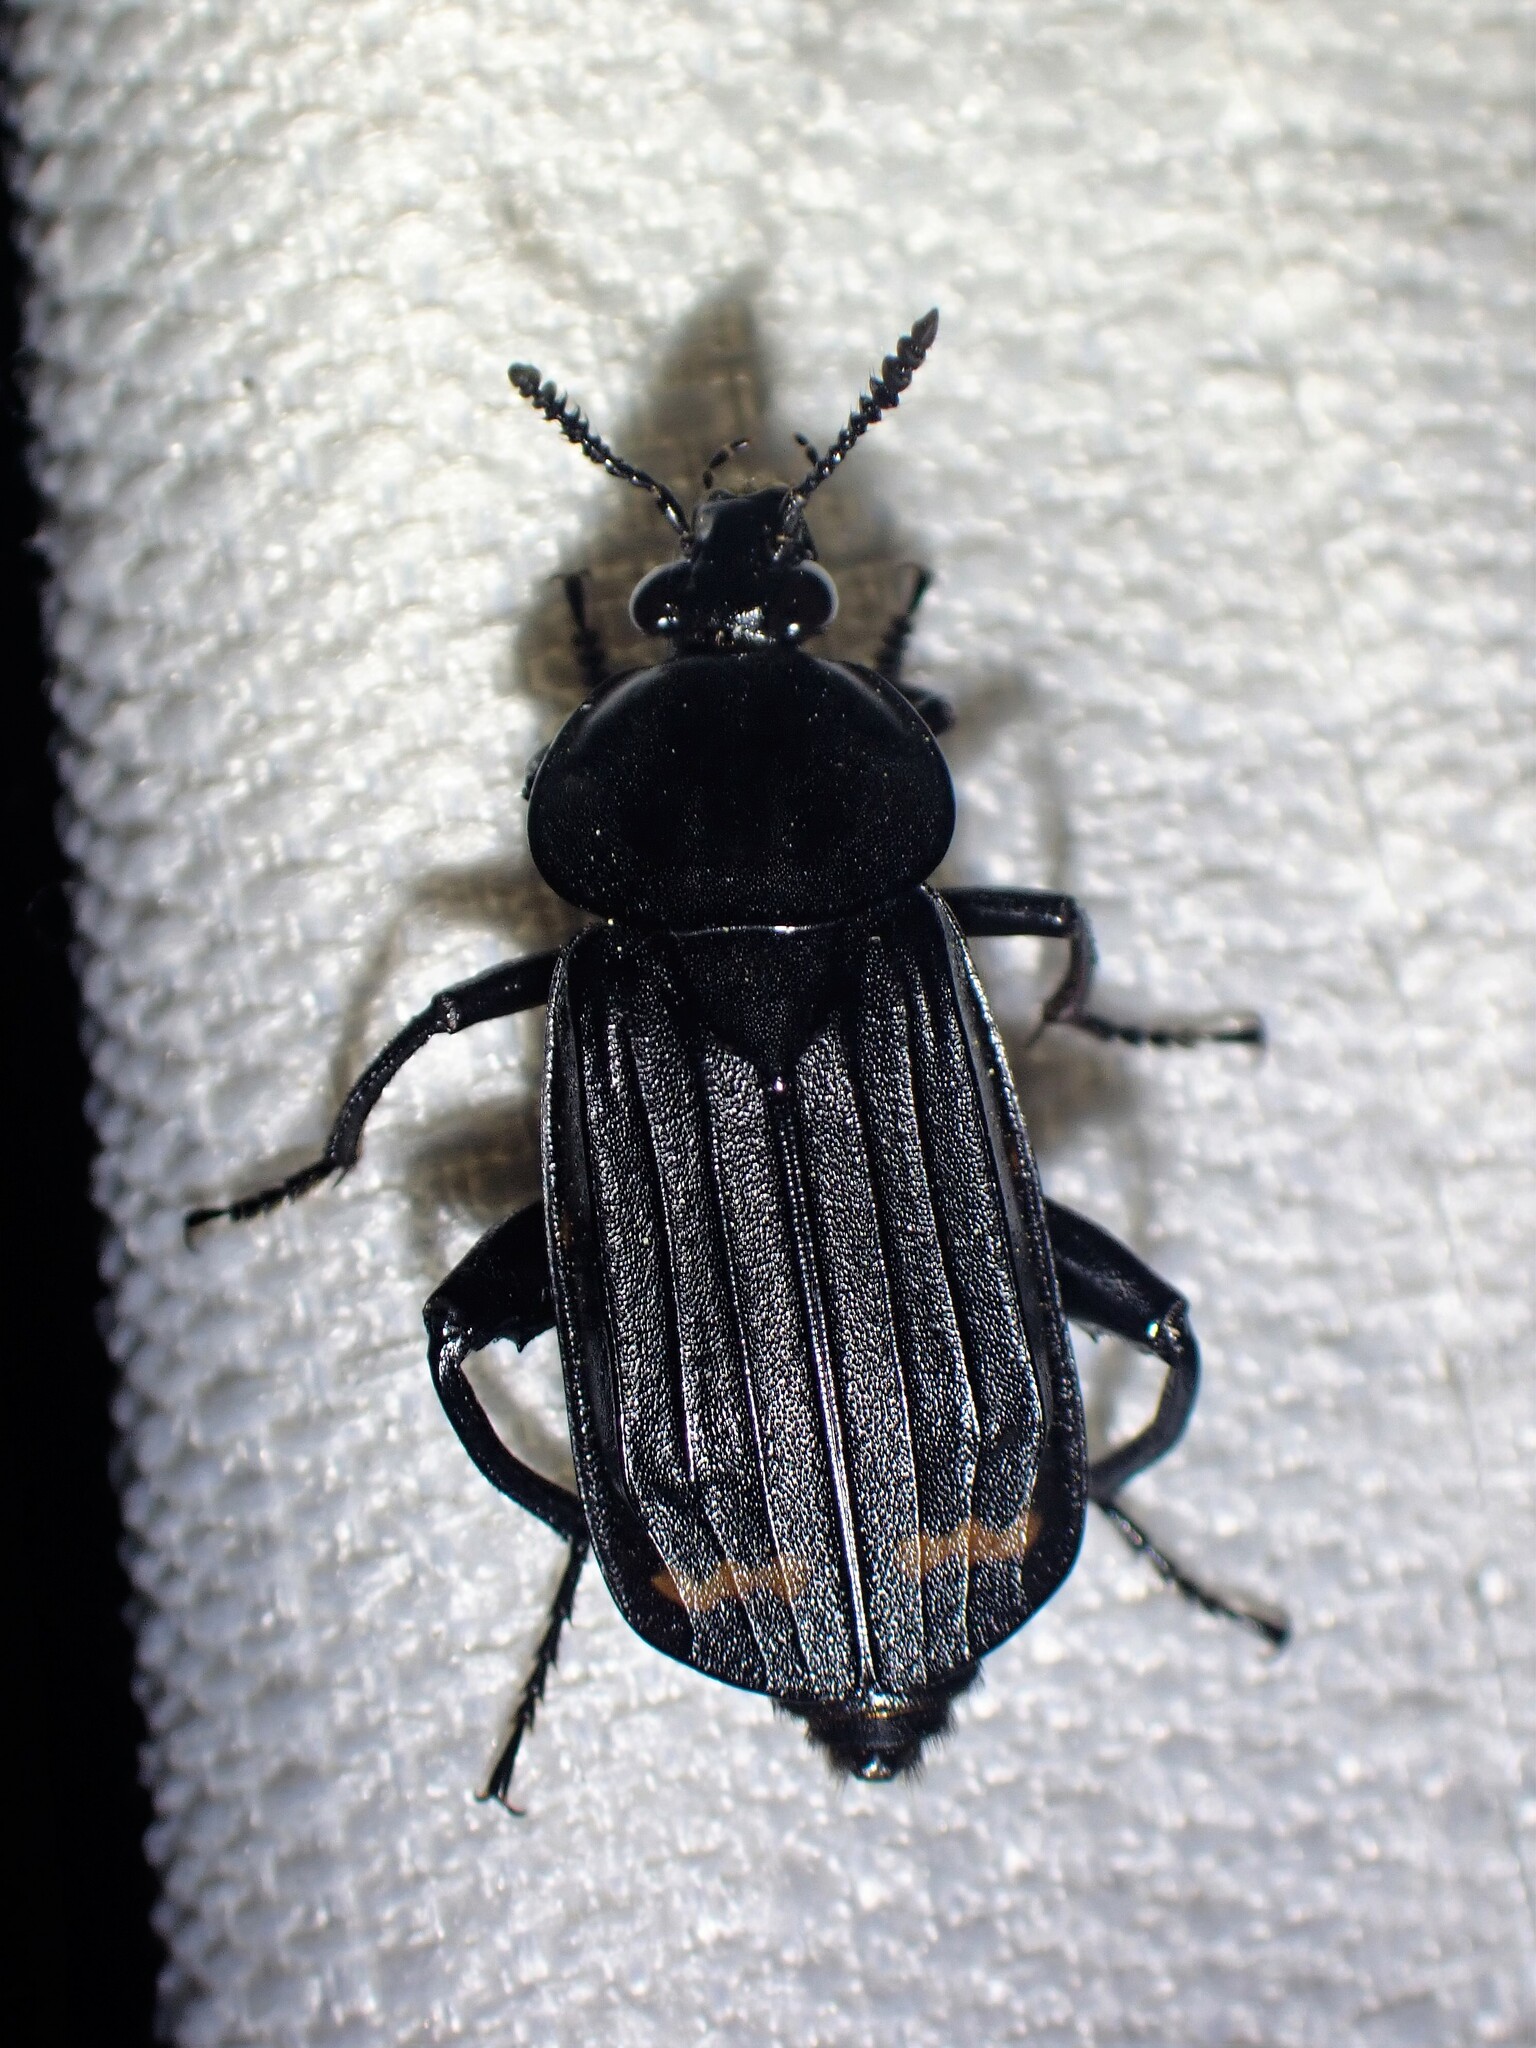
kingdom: Animalia
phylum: Arthropoda
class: Insecta
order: Coleoptera
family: Staphylinidae
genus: Necrodes
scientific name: Necrodes surinamensis
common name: Red-lined carrion beetle
